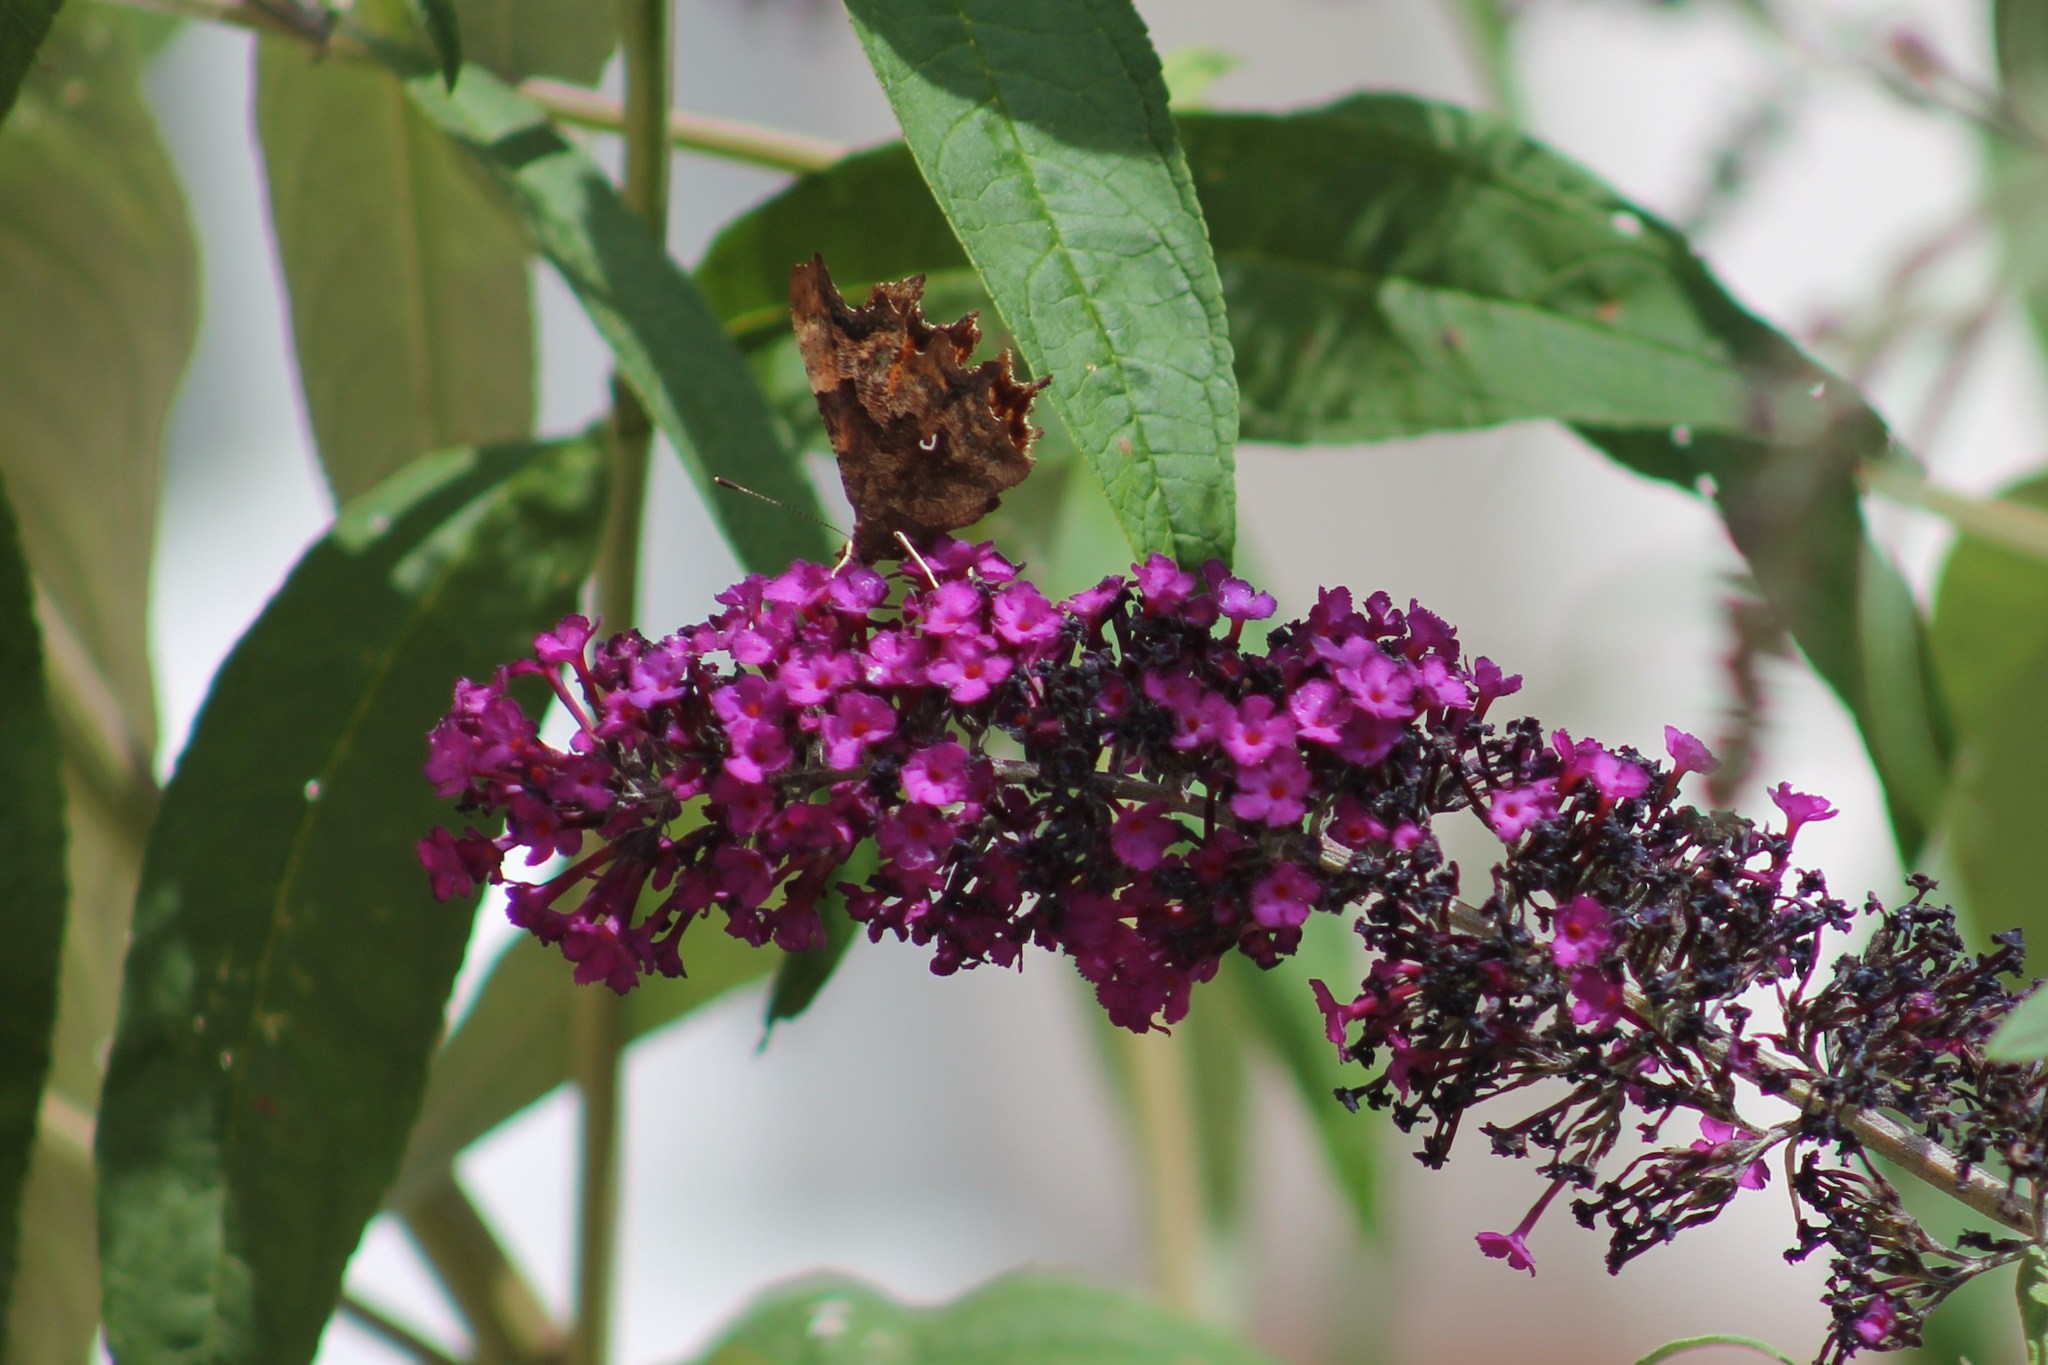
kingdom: Animalia
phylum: Arthropoda
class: Insecta
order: Lepidoptera
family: Nymphalidae
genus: Polygonia
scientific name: Polygonia c-album
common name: Comma
